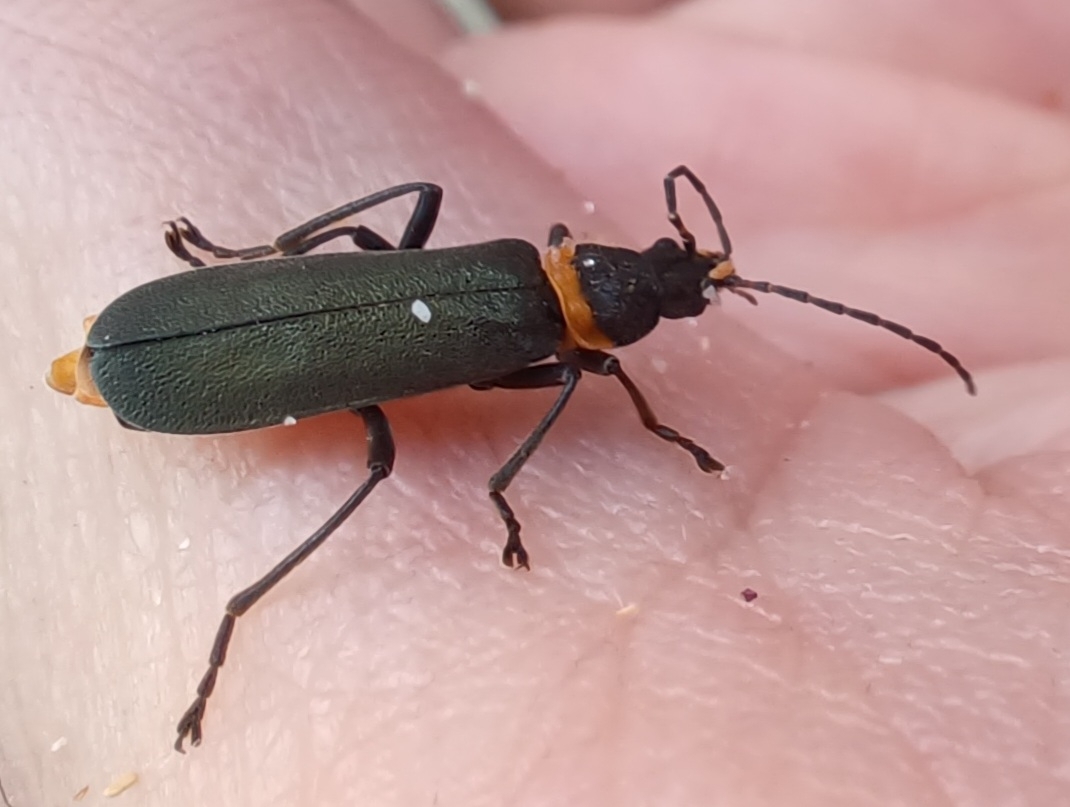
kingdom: Animalia
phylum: Arthropoda
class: Insecta
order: Coleoptera
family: Cantharidae
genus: Chauliognathus
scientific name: Chauliognathus
